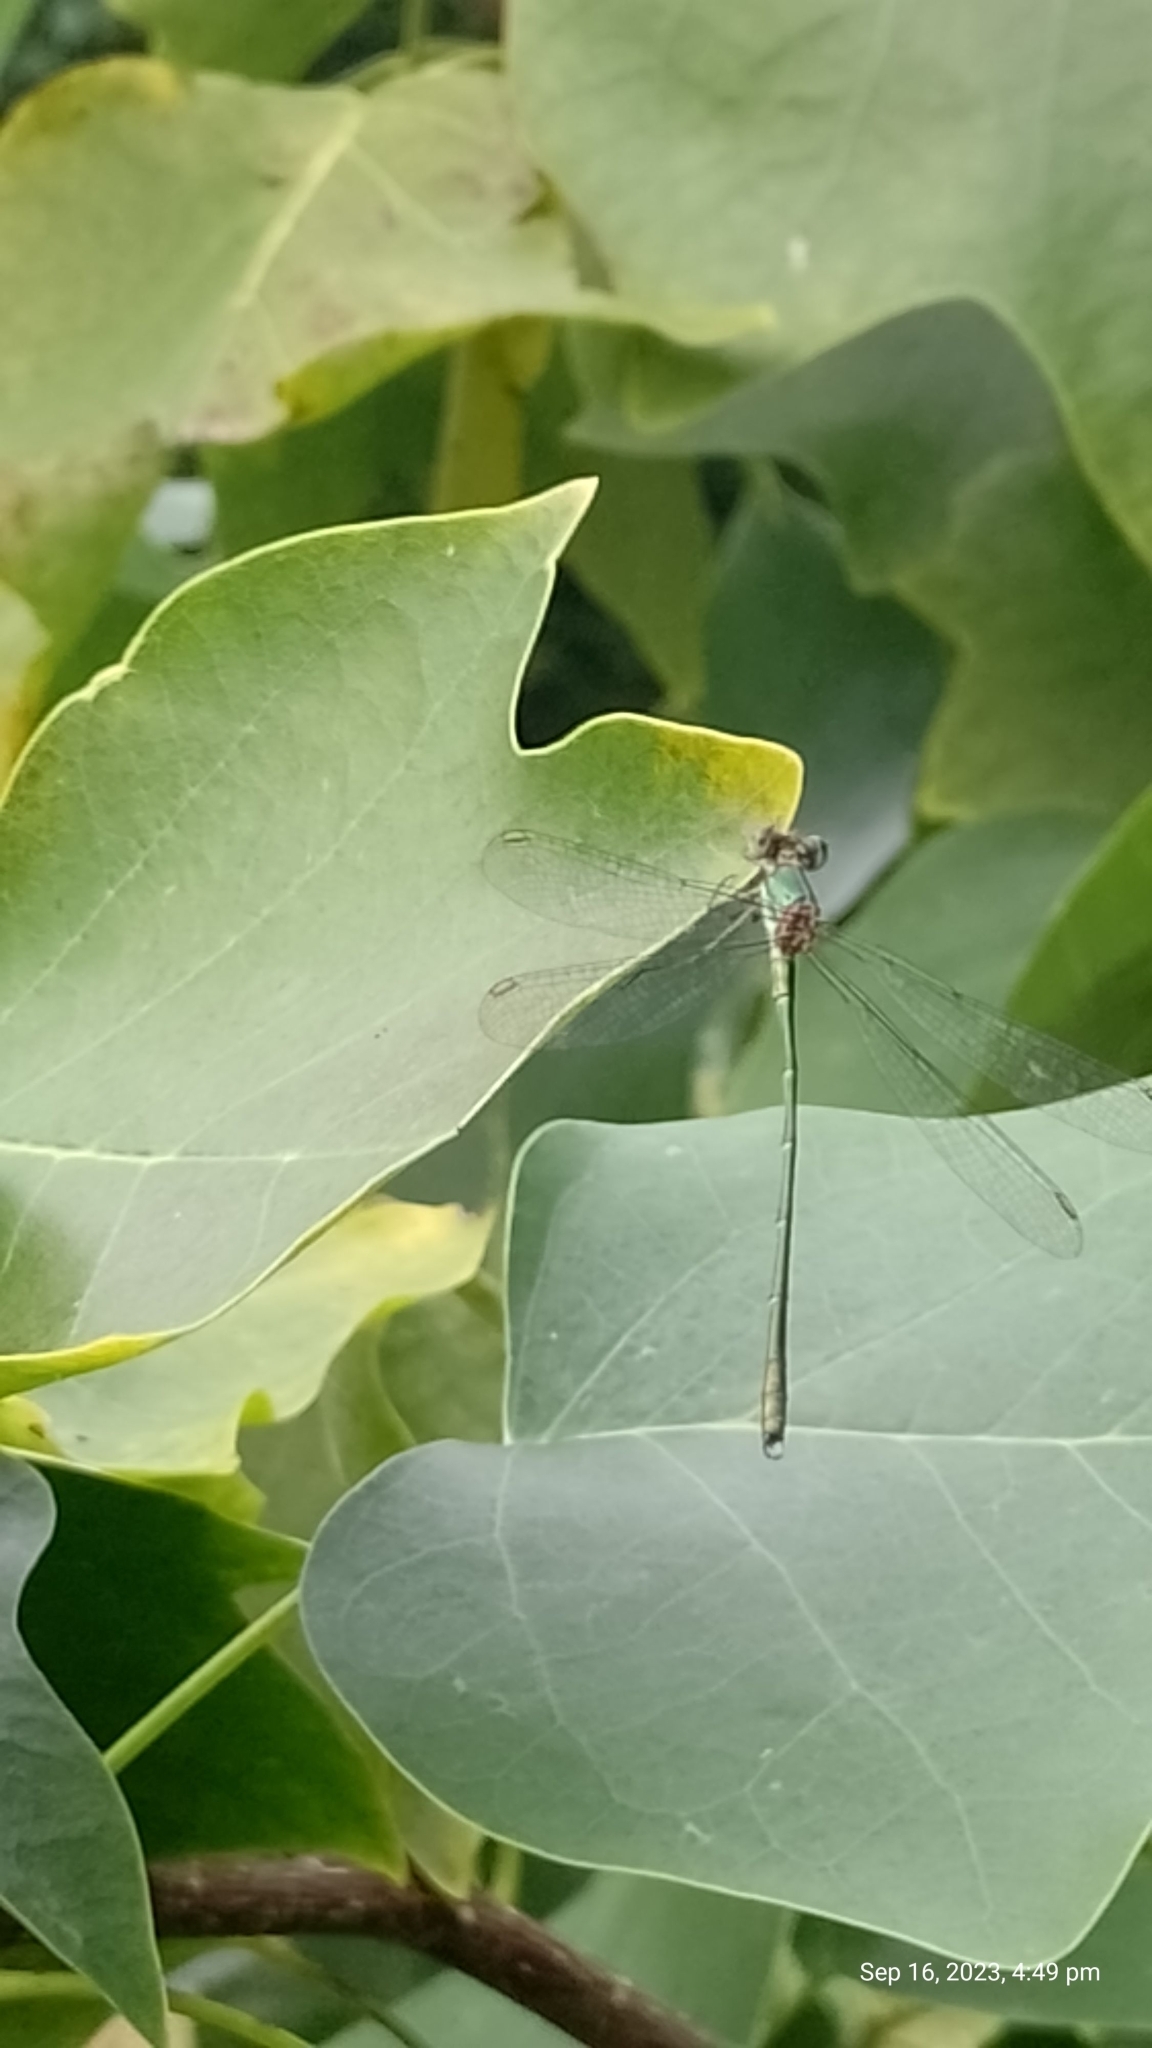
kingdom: Animalia
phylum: Arthropoda
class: Insecta
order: Odonata
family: Lestidae
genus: Chalcolestes
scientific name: Chalcolestes viridis
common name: Green emerald damselfly
